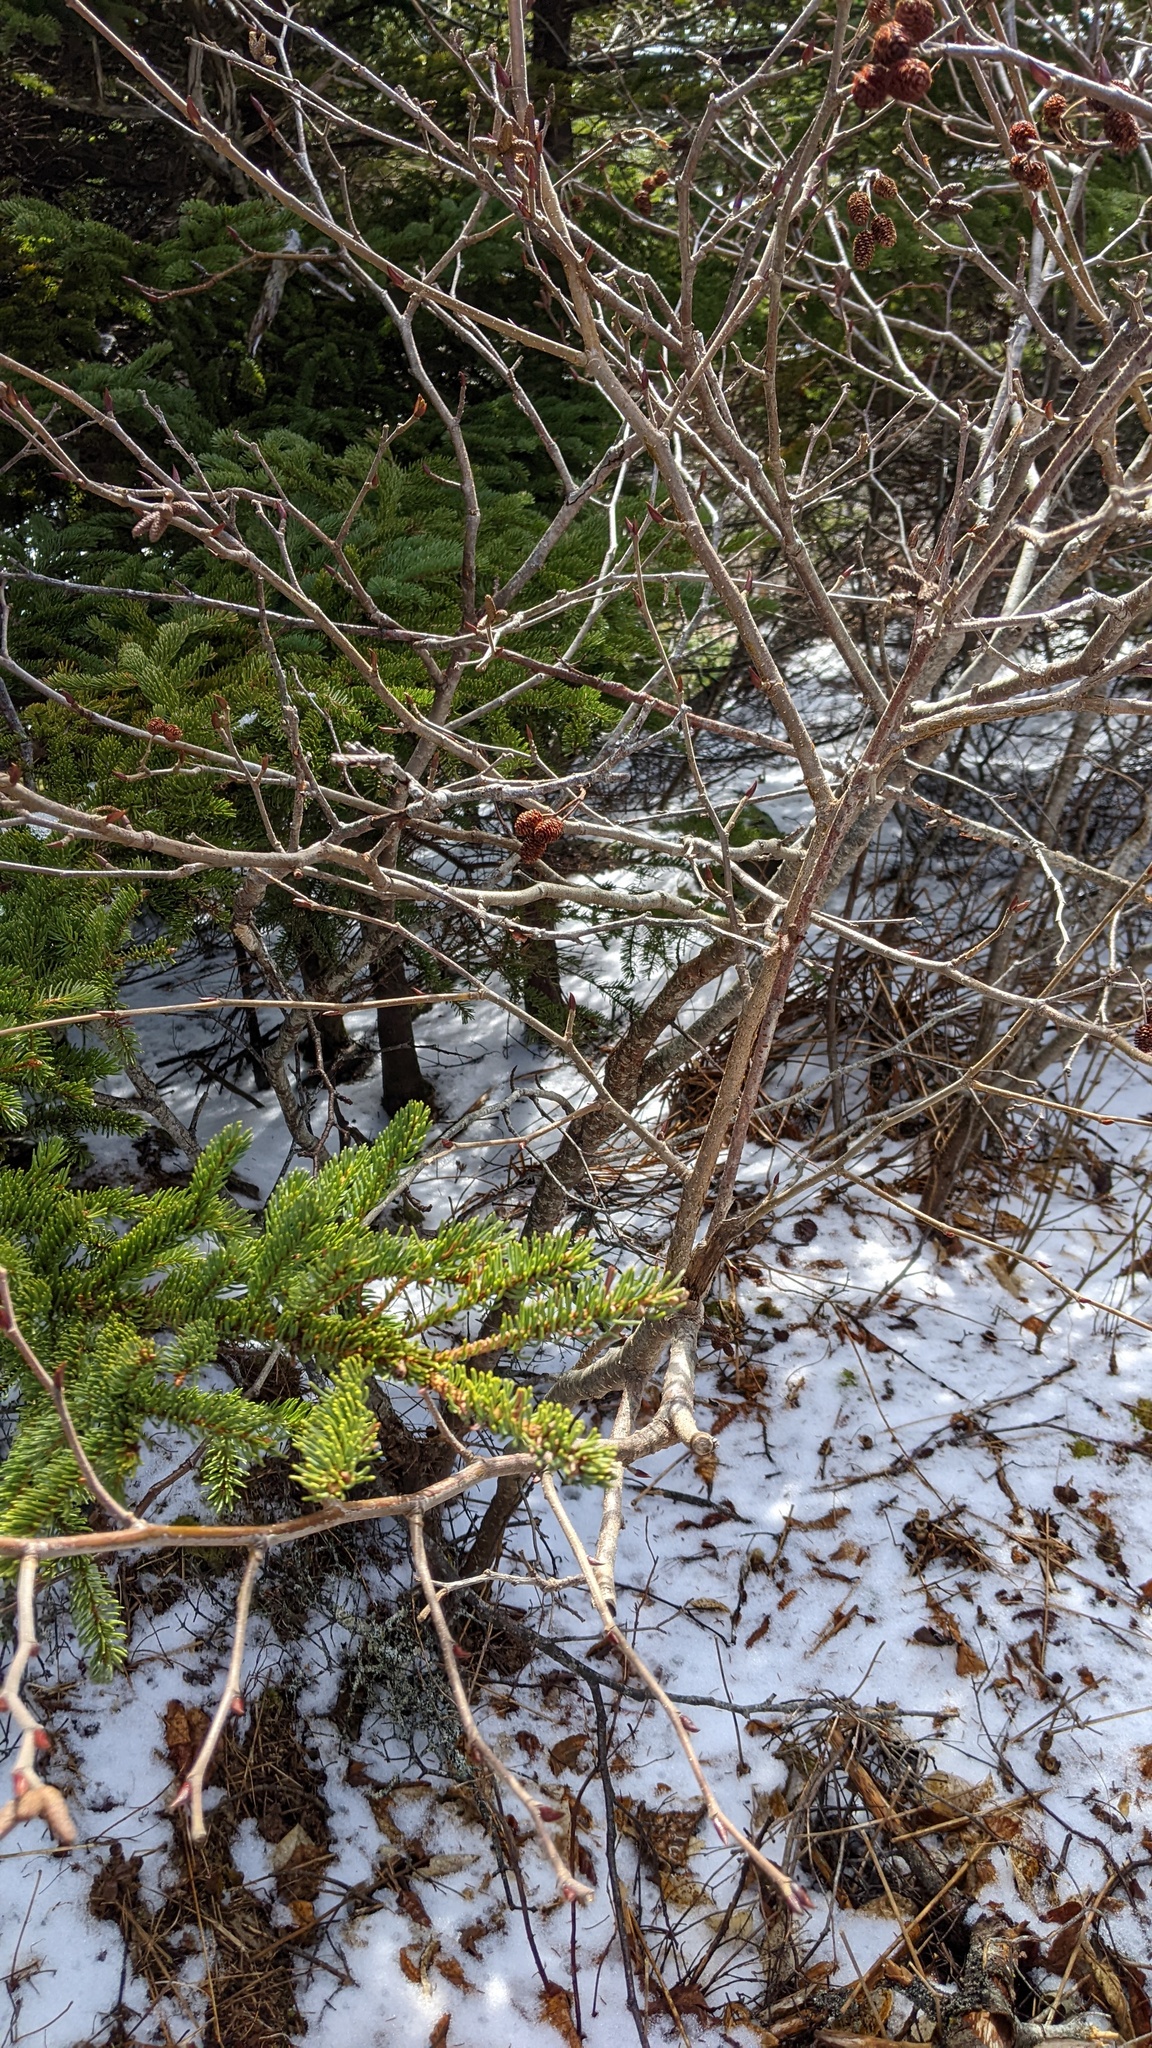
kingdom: Plantae
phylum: Tracheophyta
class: Magnoliopsida
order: Fagales
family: Betulaceae
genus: Alnus
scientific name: Alnus alnobetula
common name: Green alder
